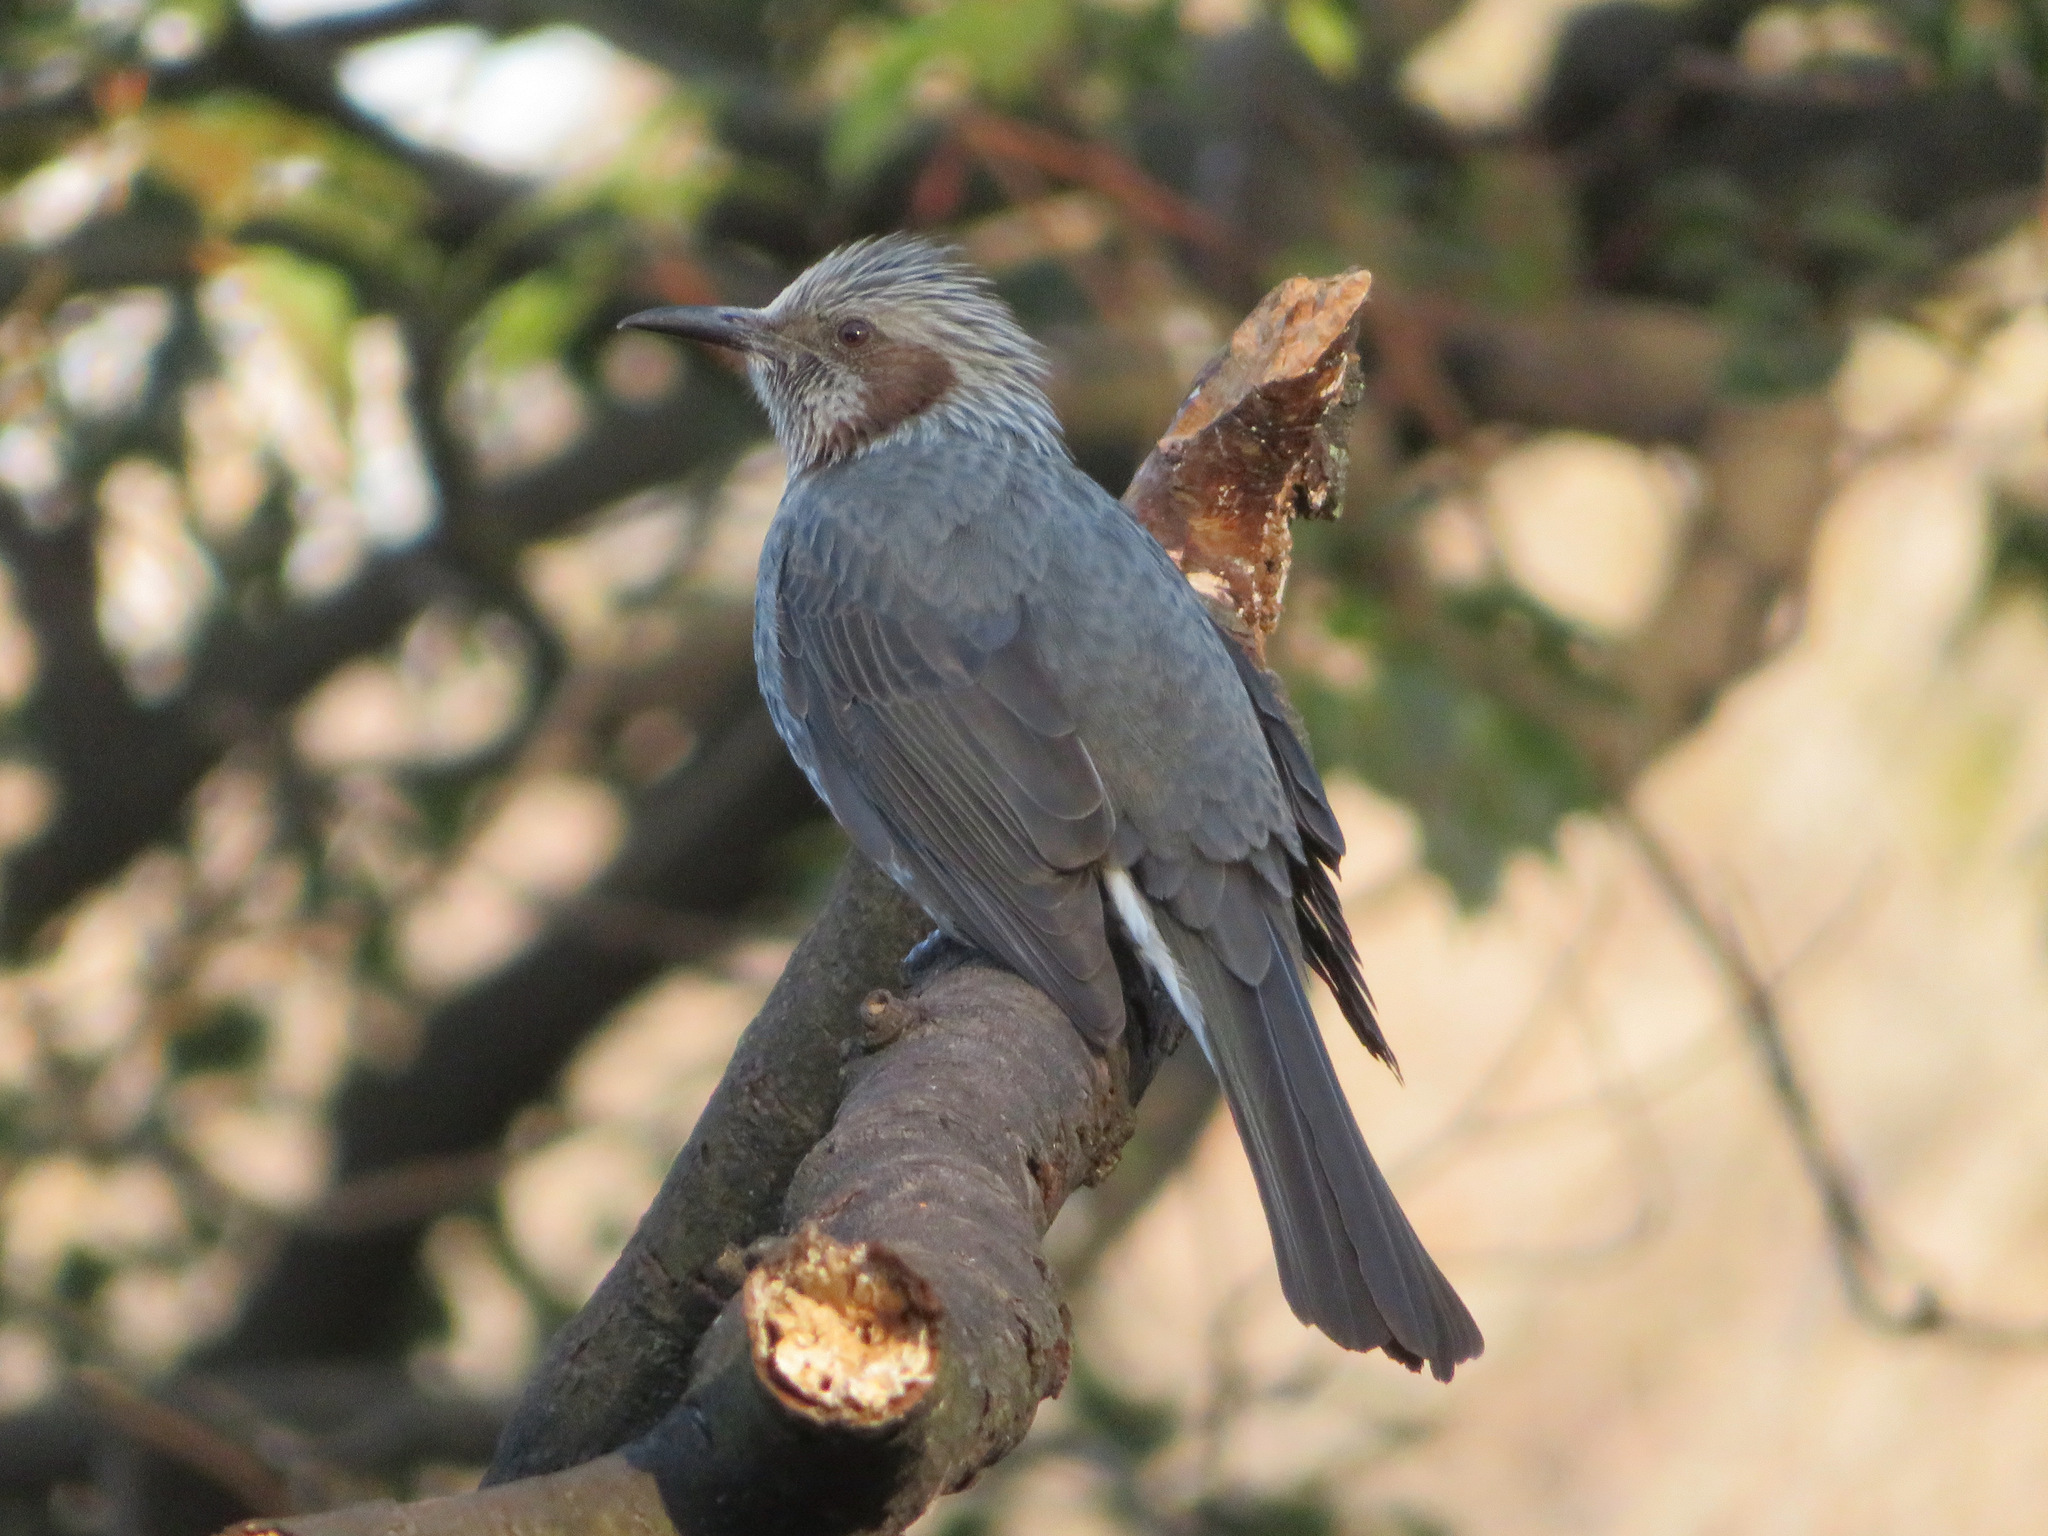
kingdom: Animalia
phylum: Chordata
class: Aves
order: Passeriformes
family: Pycnonotidae
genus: Hypsipetes
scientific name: Hypsipetes amaurotis
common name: Brown-eared bulbul
